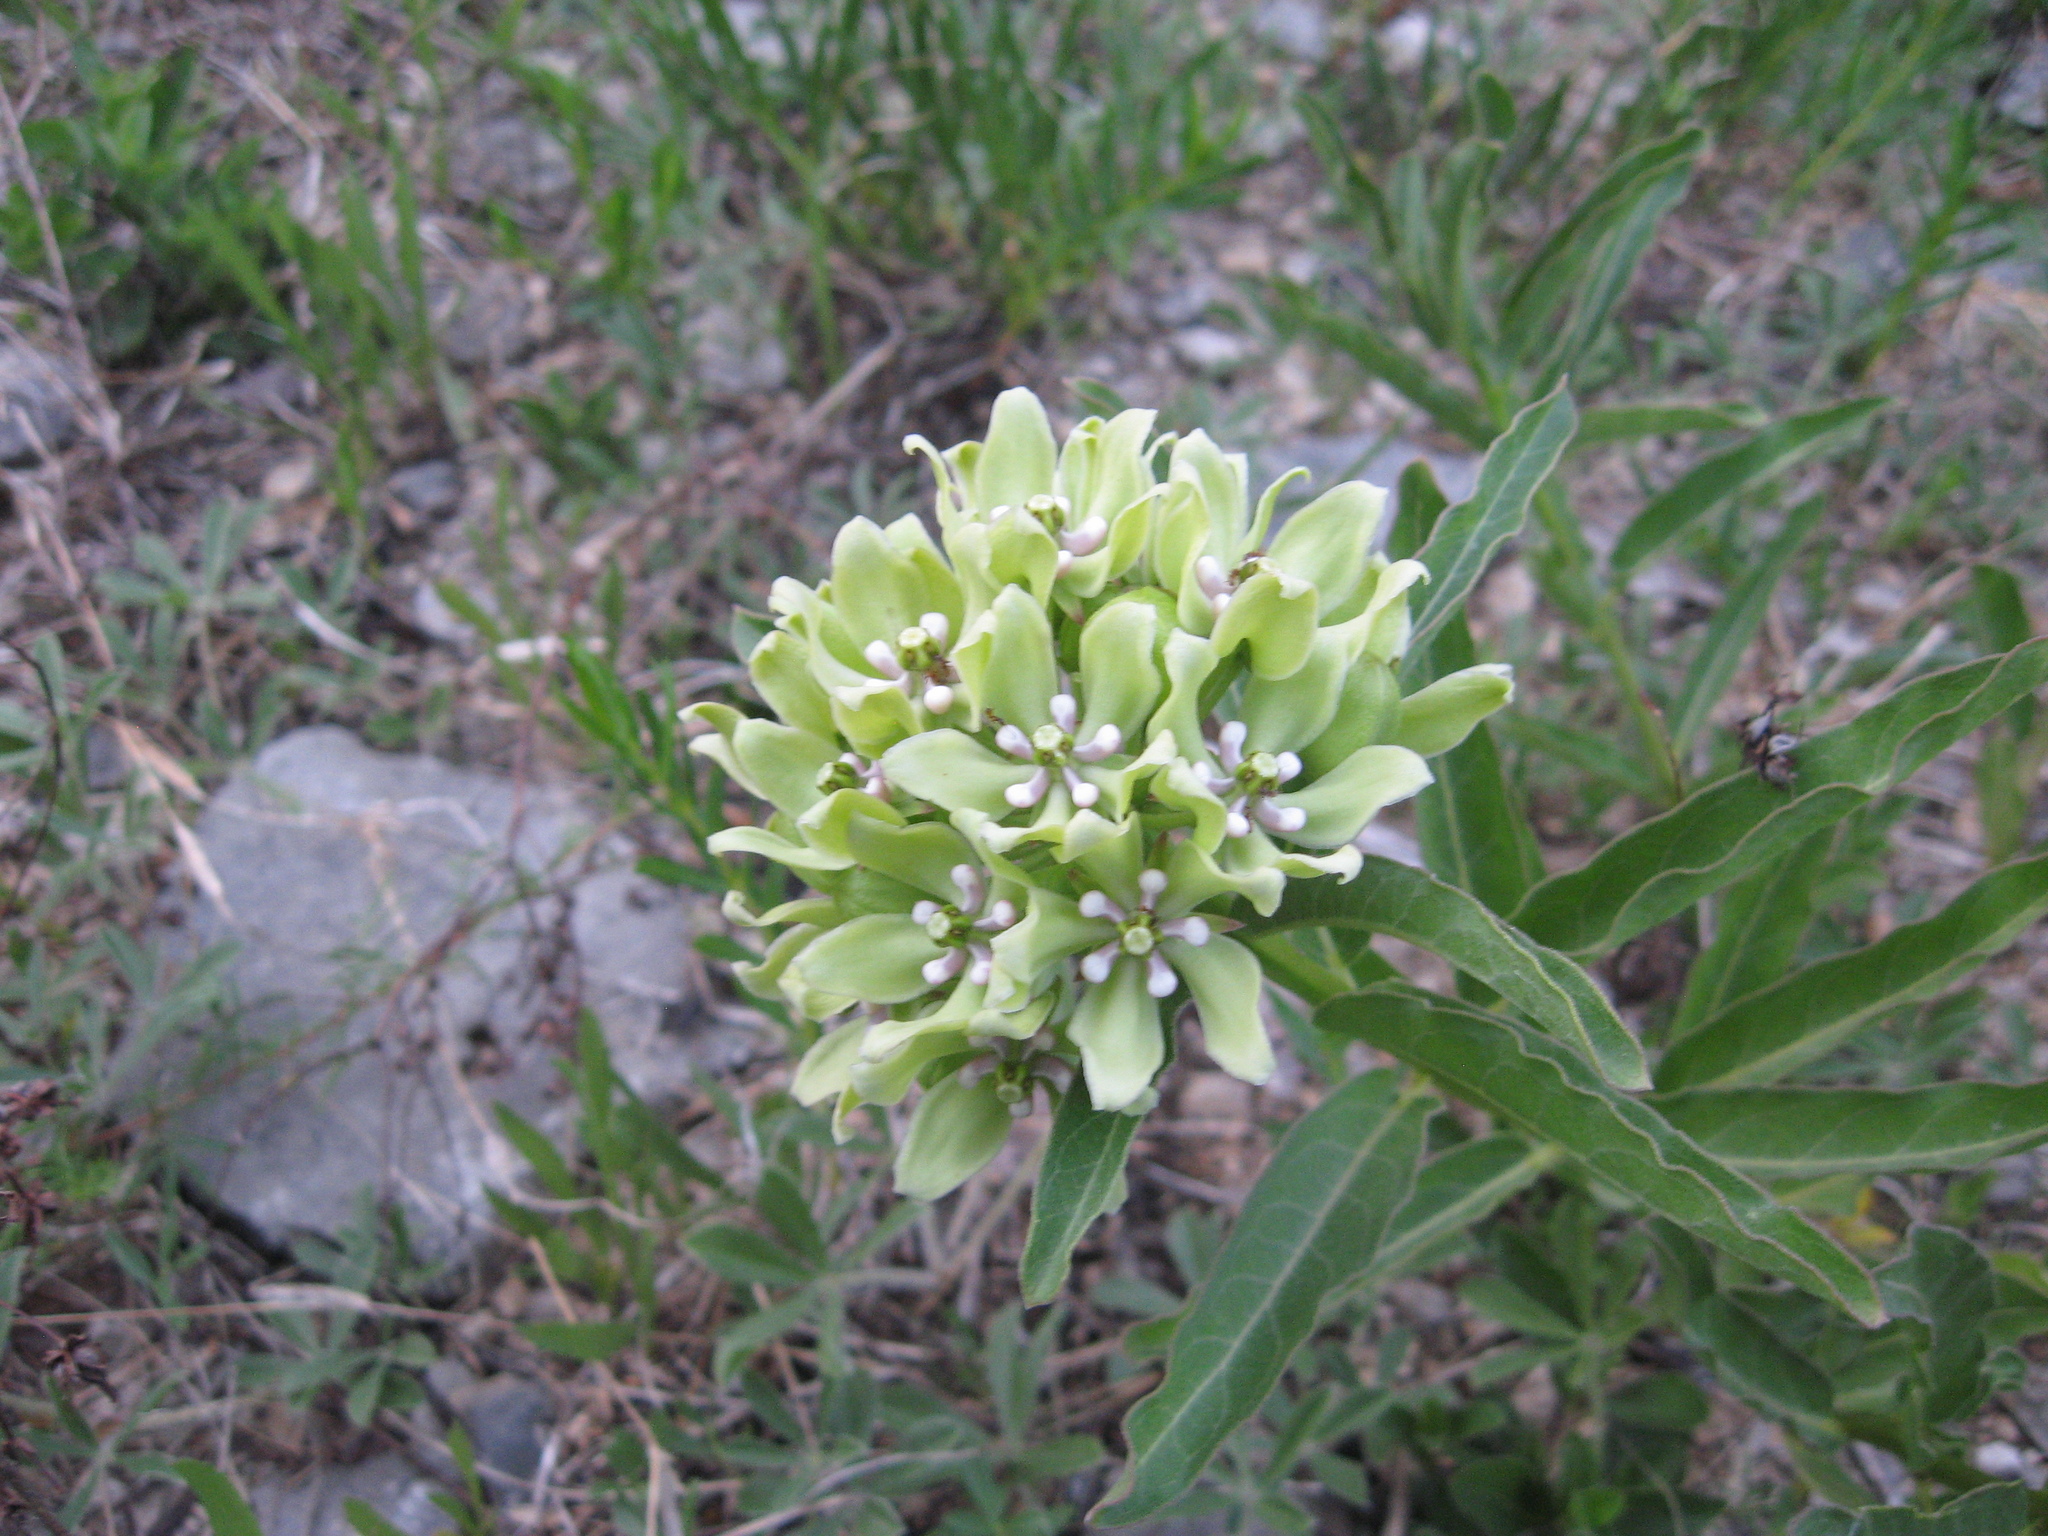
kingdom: Plantae
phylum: Tracheophyta
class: Magnoliopsida
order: Gentianales
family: Apocynaceae
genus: Asclepias
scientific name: Asclepias viridis
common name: Antelope-horns
